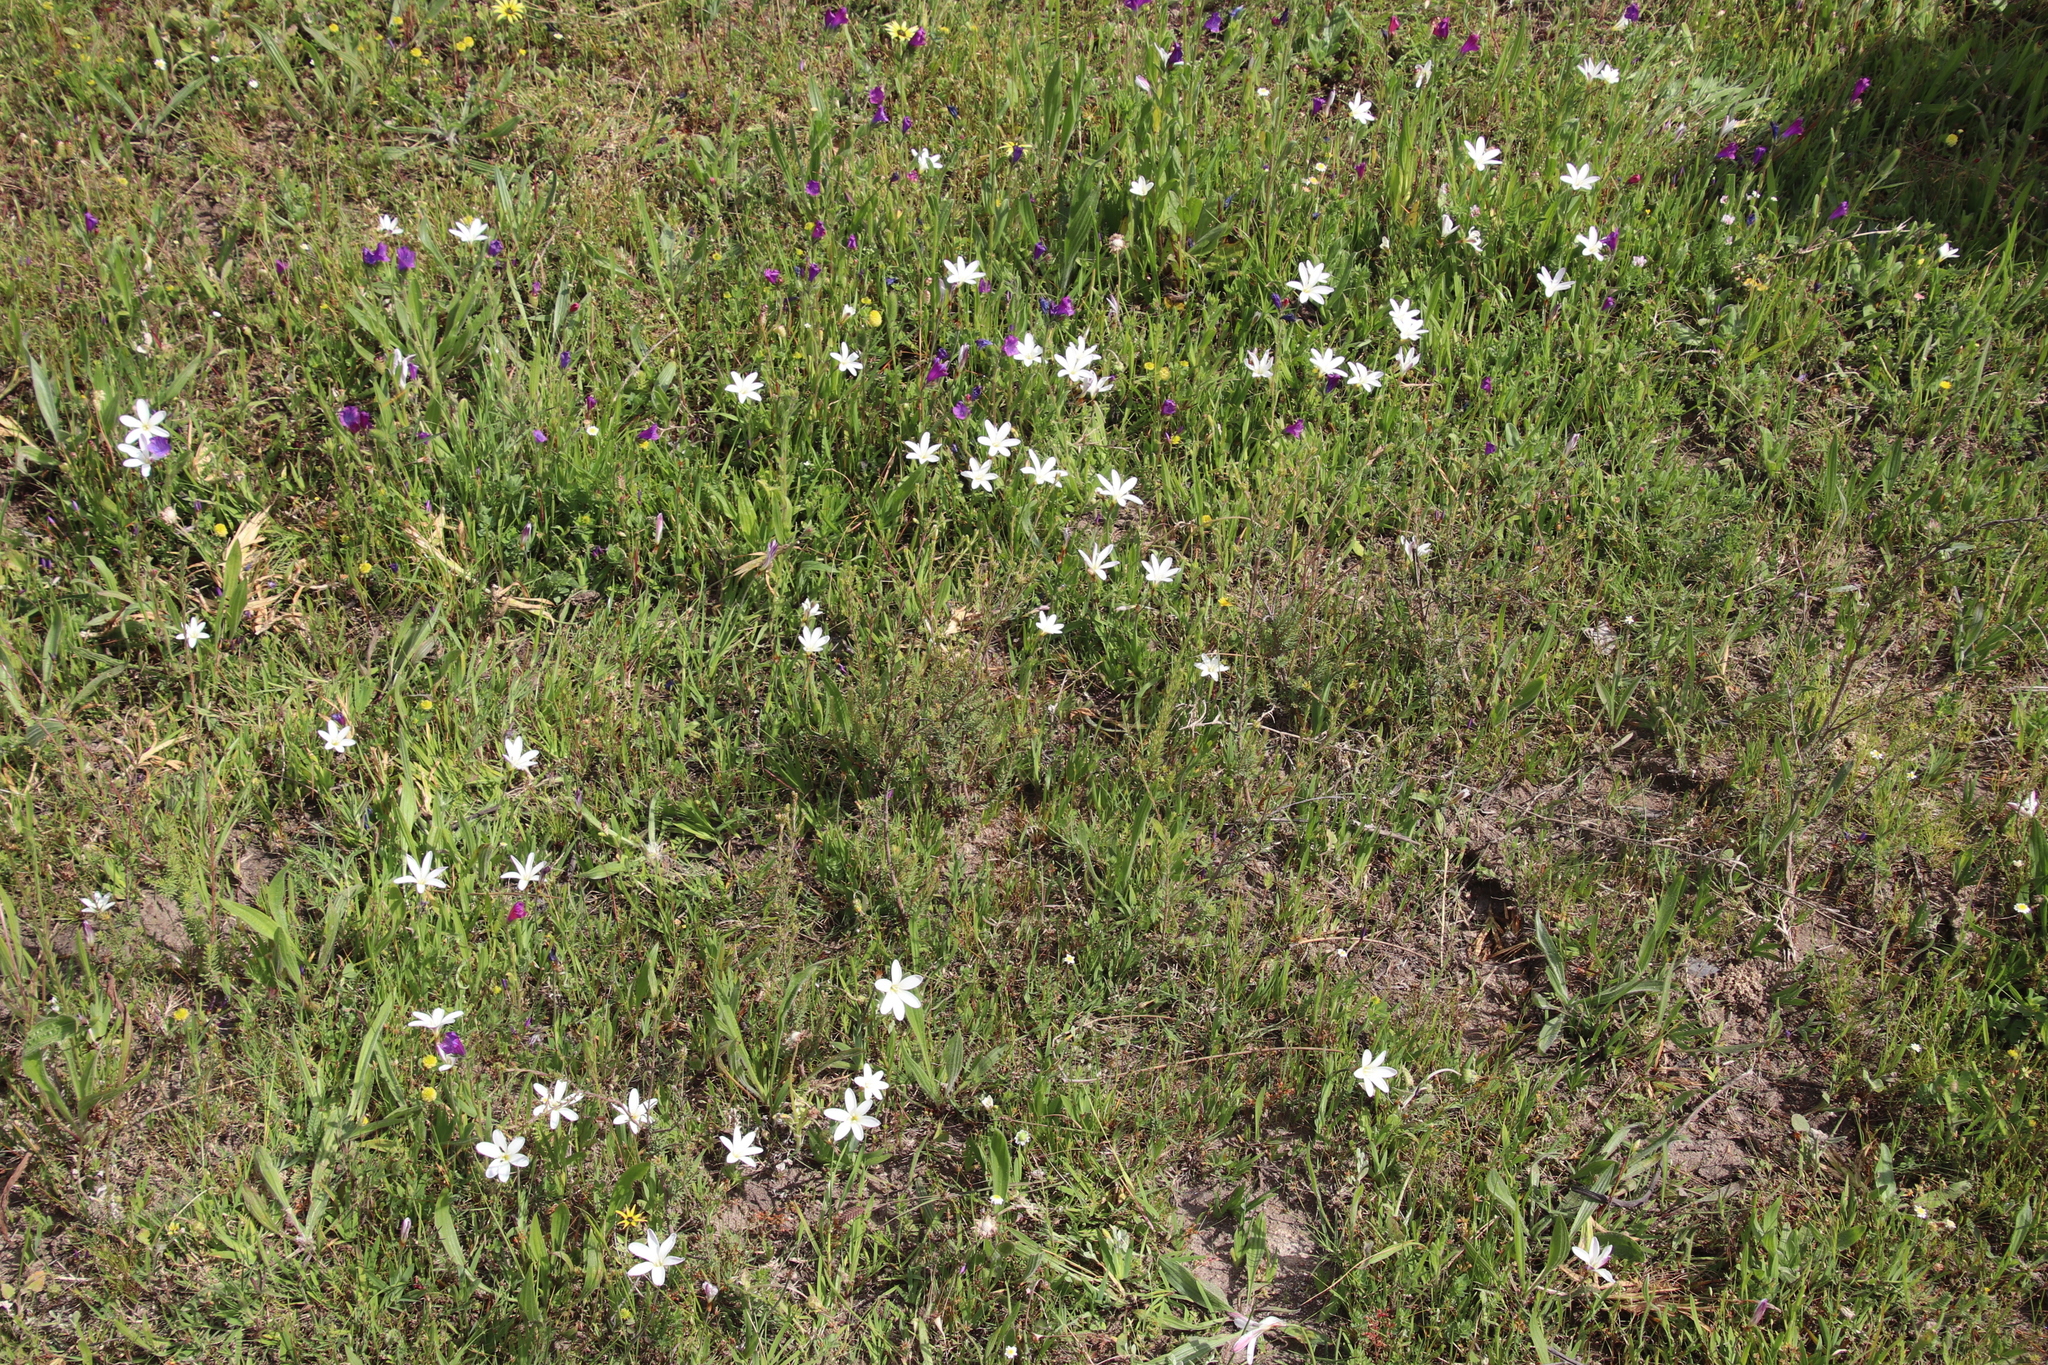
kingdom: Plantae
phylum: Tracheophyta
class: Liliopsida
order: Asparagales
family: Iridaceae
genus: Sparaxis
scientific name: Sparaxis bulbifera
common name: Harlequin-flower
